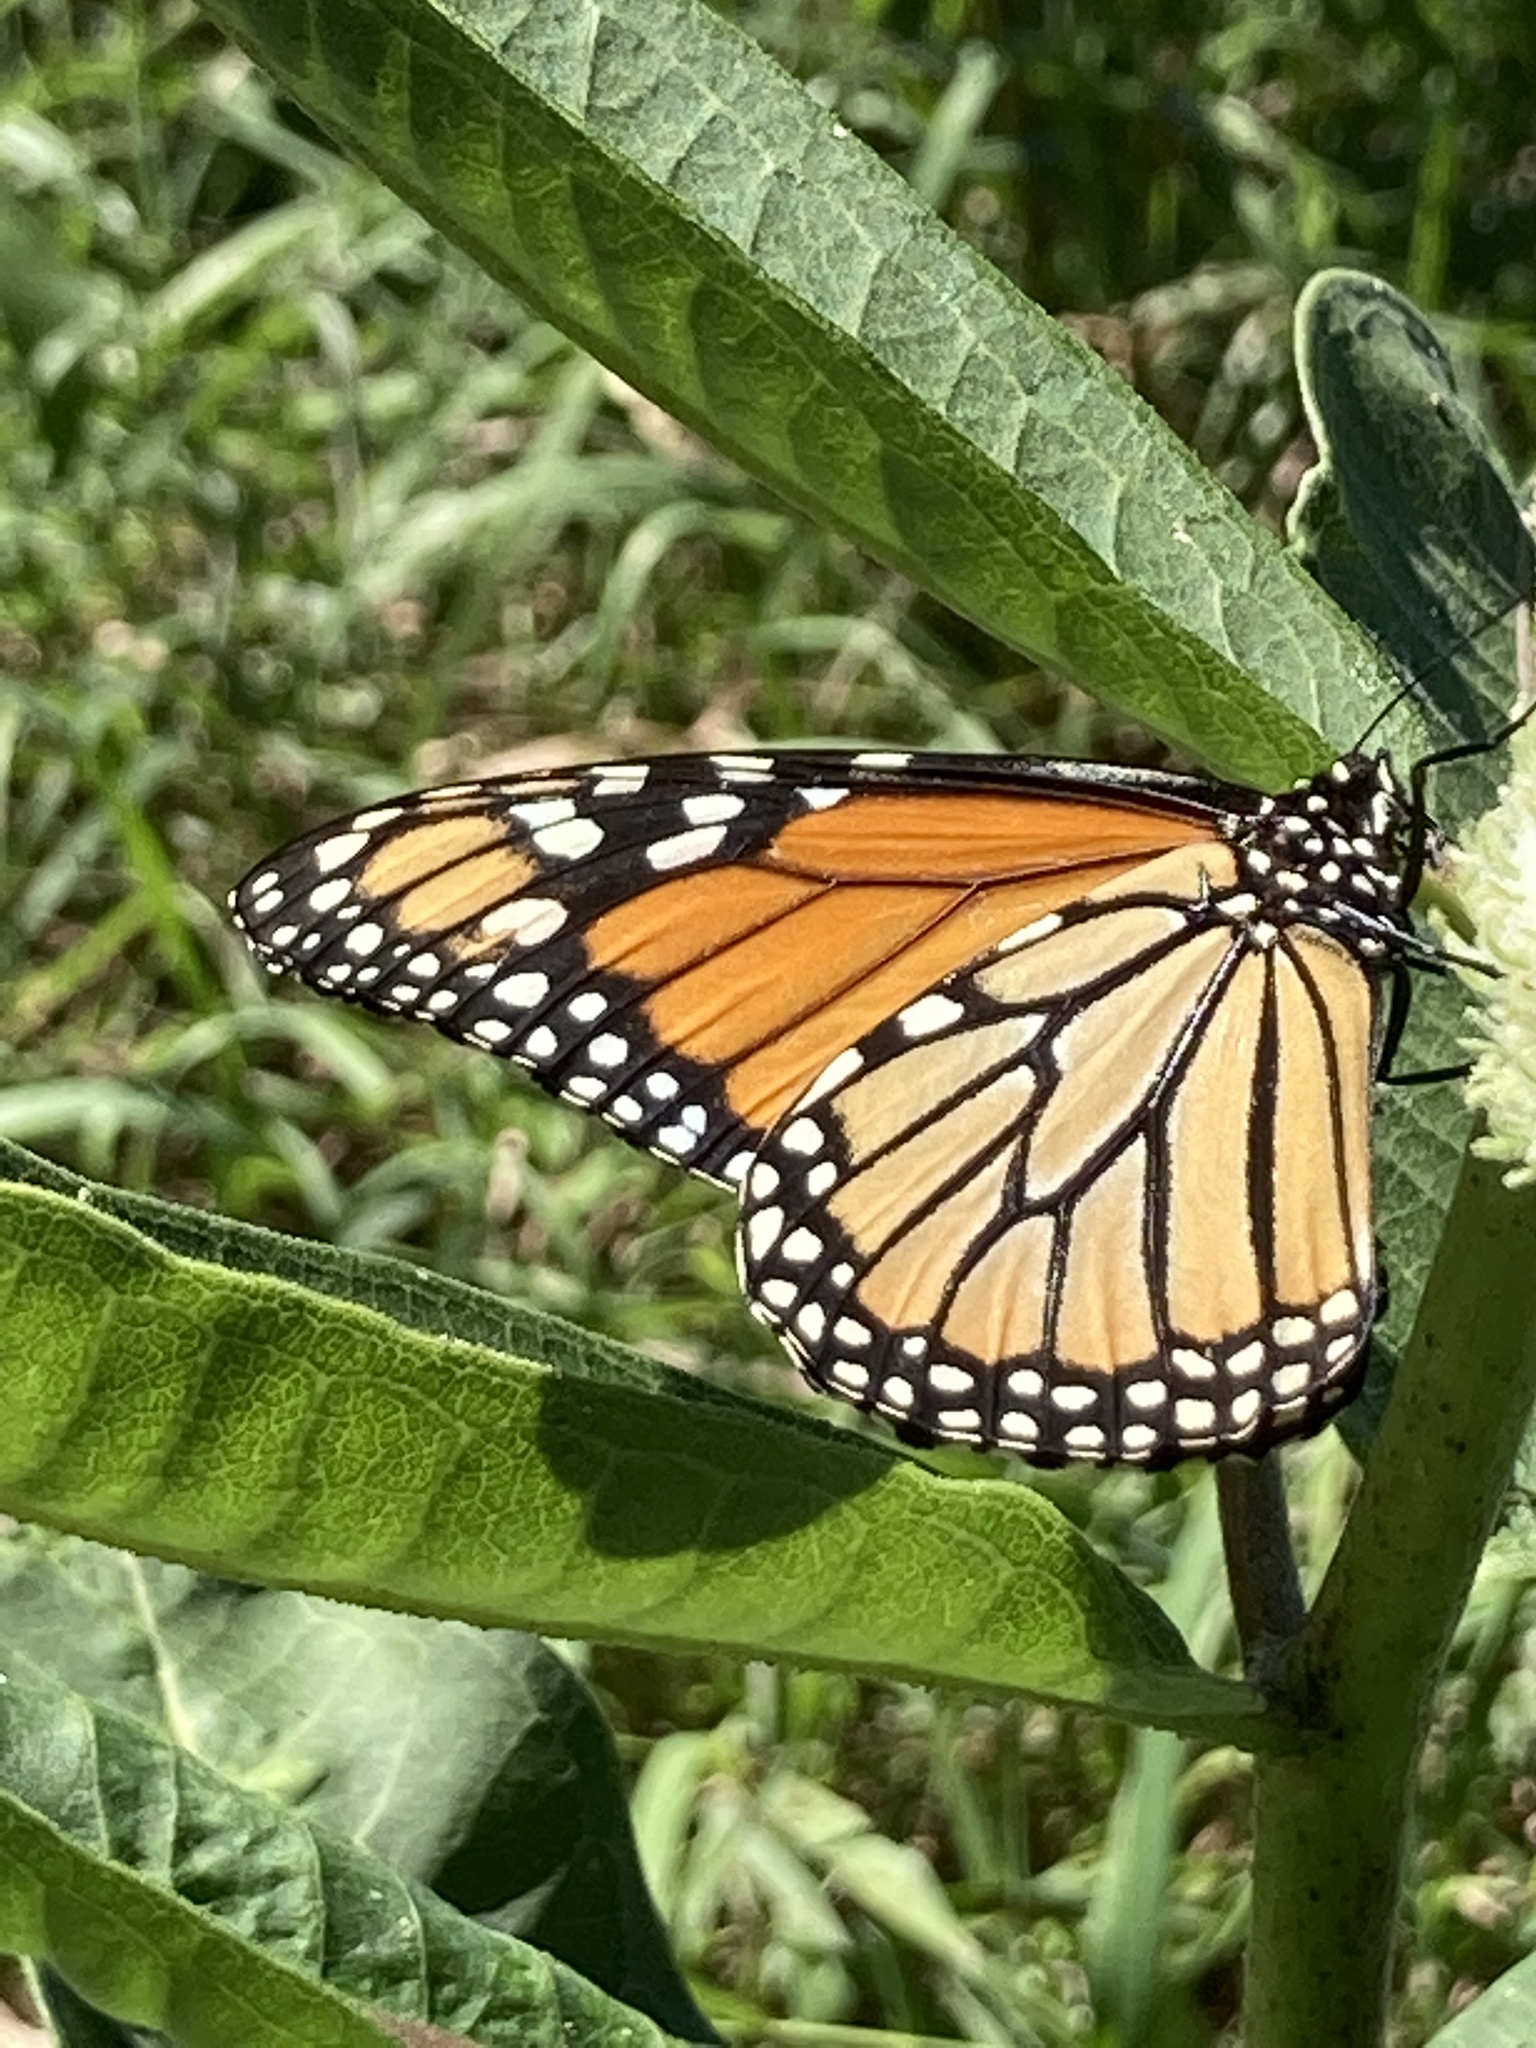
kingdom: Animalia
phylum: Arthropoda
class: Insecta
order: Lepidoptera
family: Nymphalidae
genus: Danaus
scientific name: Danaus plexippus
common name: Monarch
